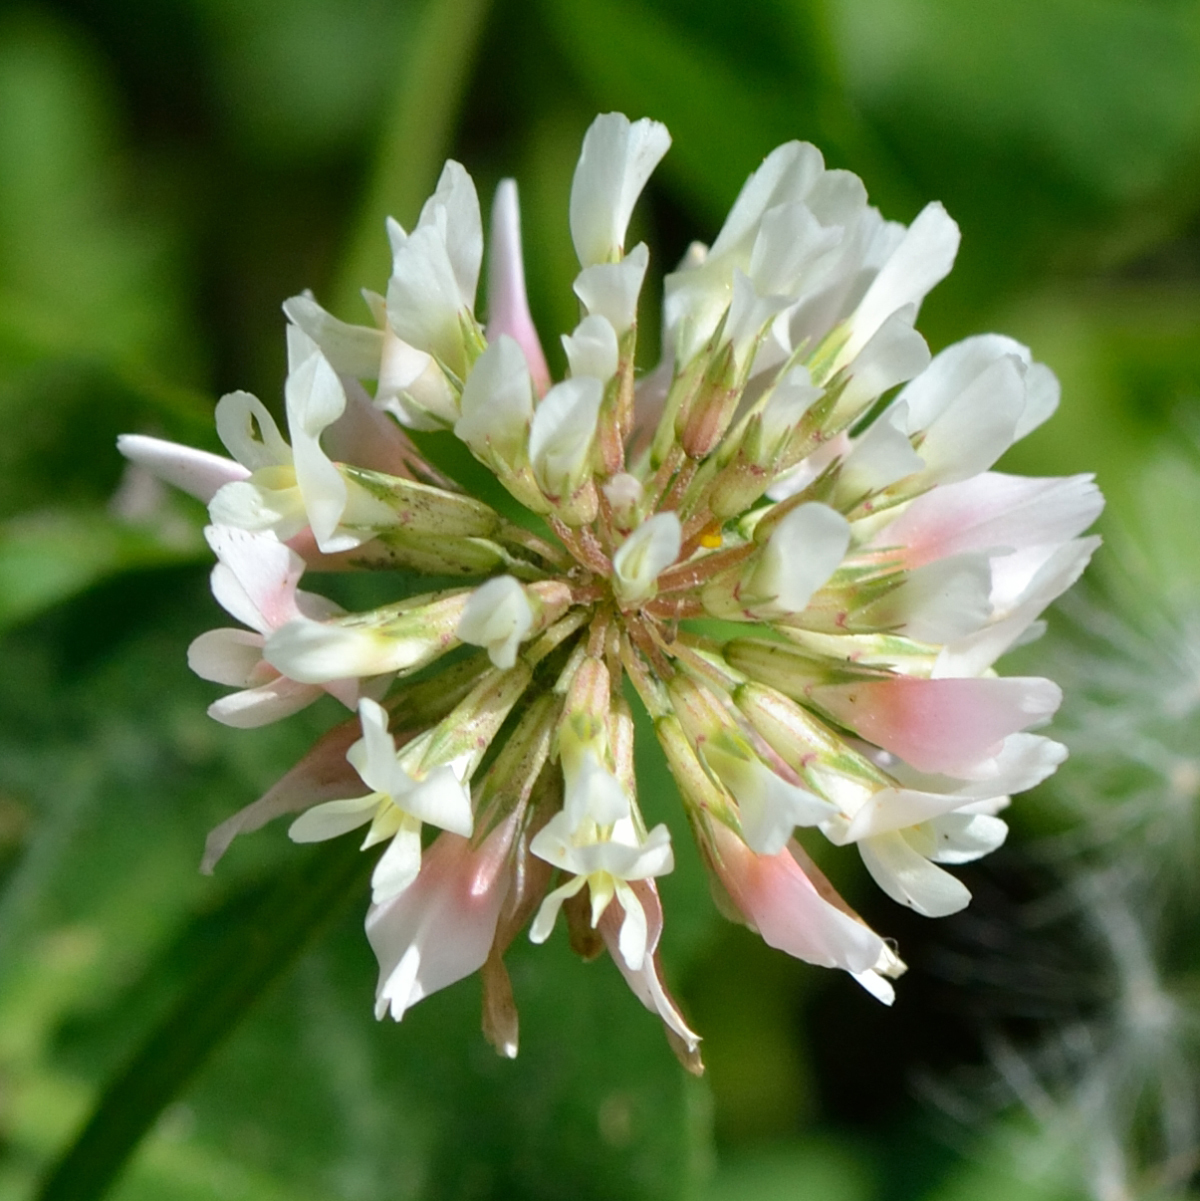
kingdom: Plantae
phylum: Tracheophyta
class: Magnoliopsida
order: Fabales
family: Fabaceae
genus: Trifolium
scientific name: Trifolium repens
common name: White clover
